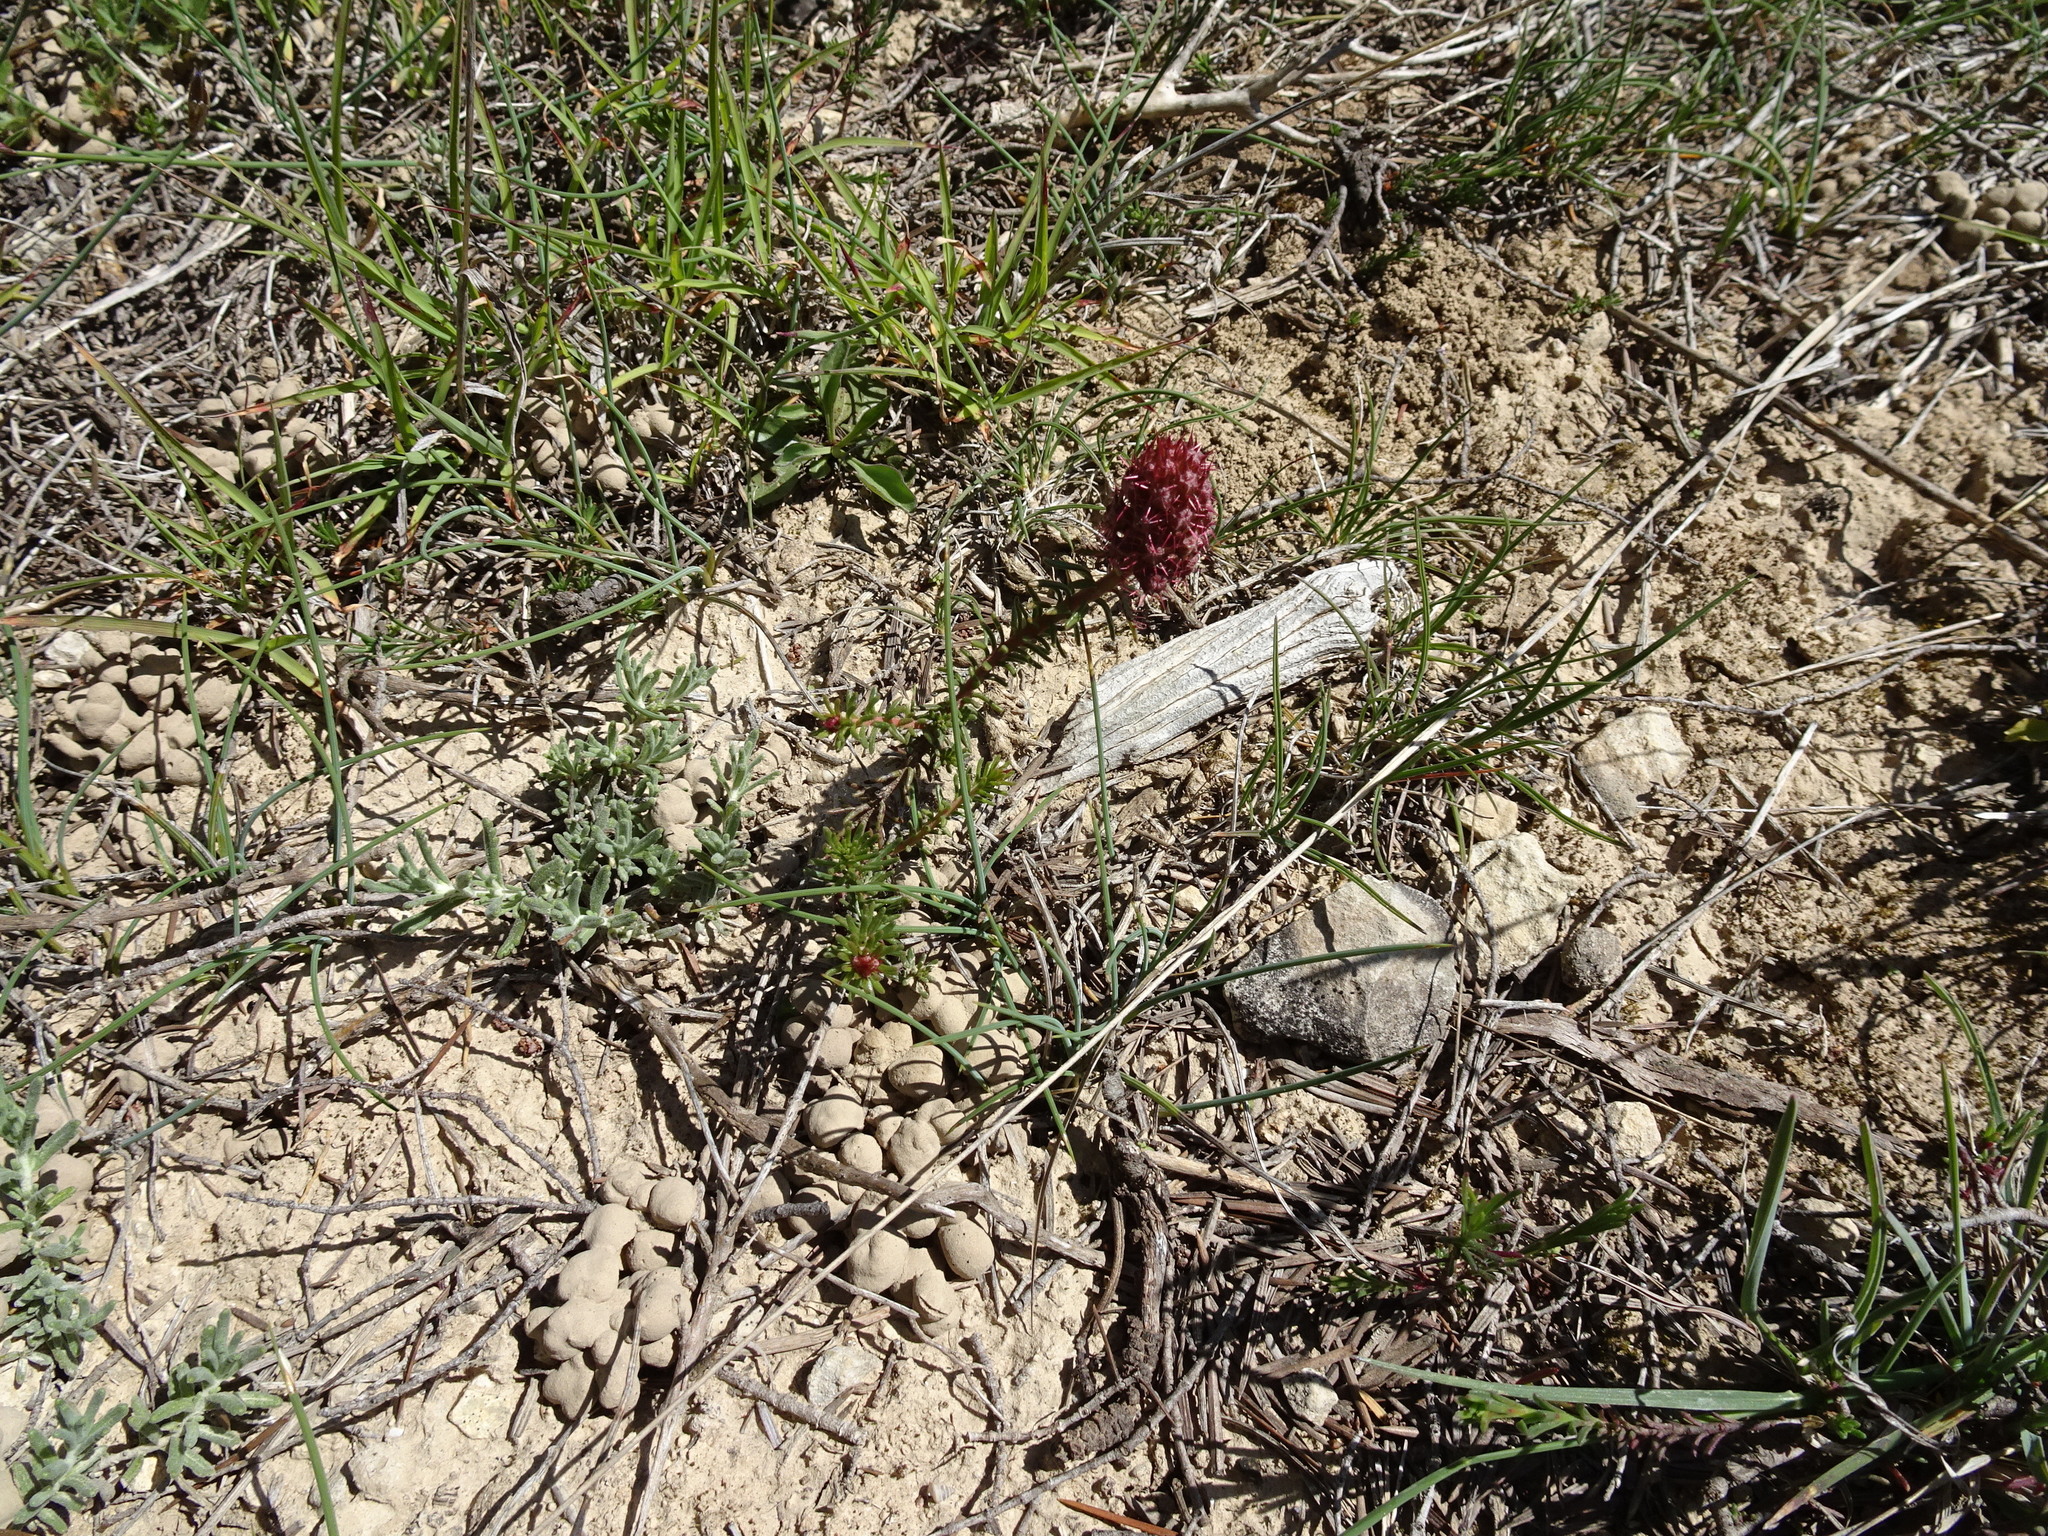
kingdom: Plantae
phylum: Tracheophyta
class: Magnoliopsida
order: Ericales
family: Primulaceae
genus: Coris
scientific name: Coris monspeliensis
